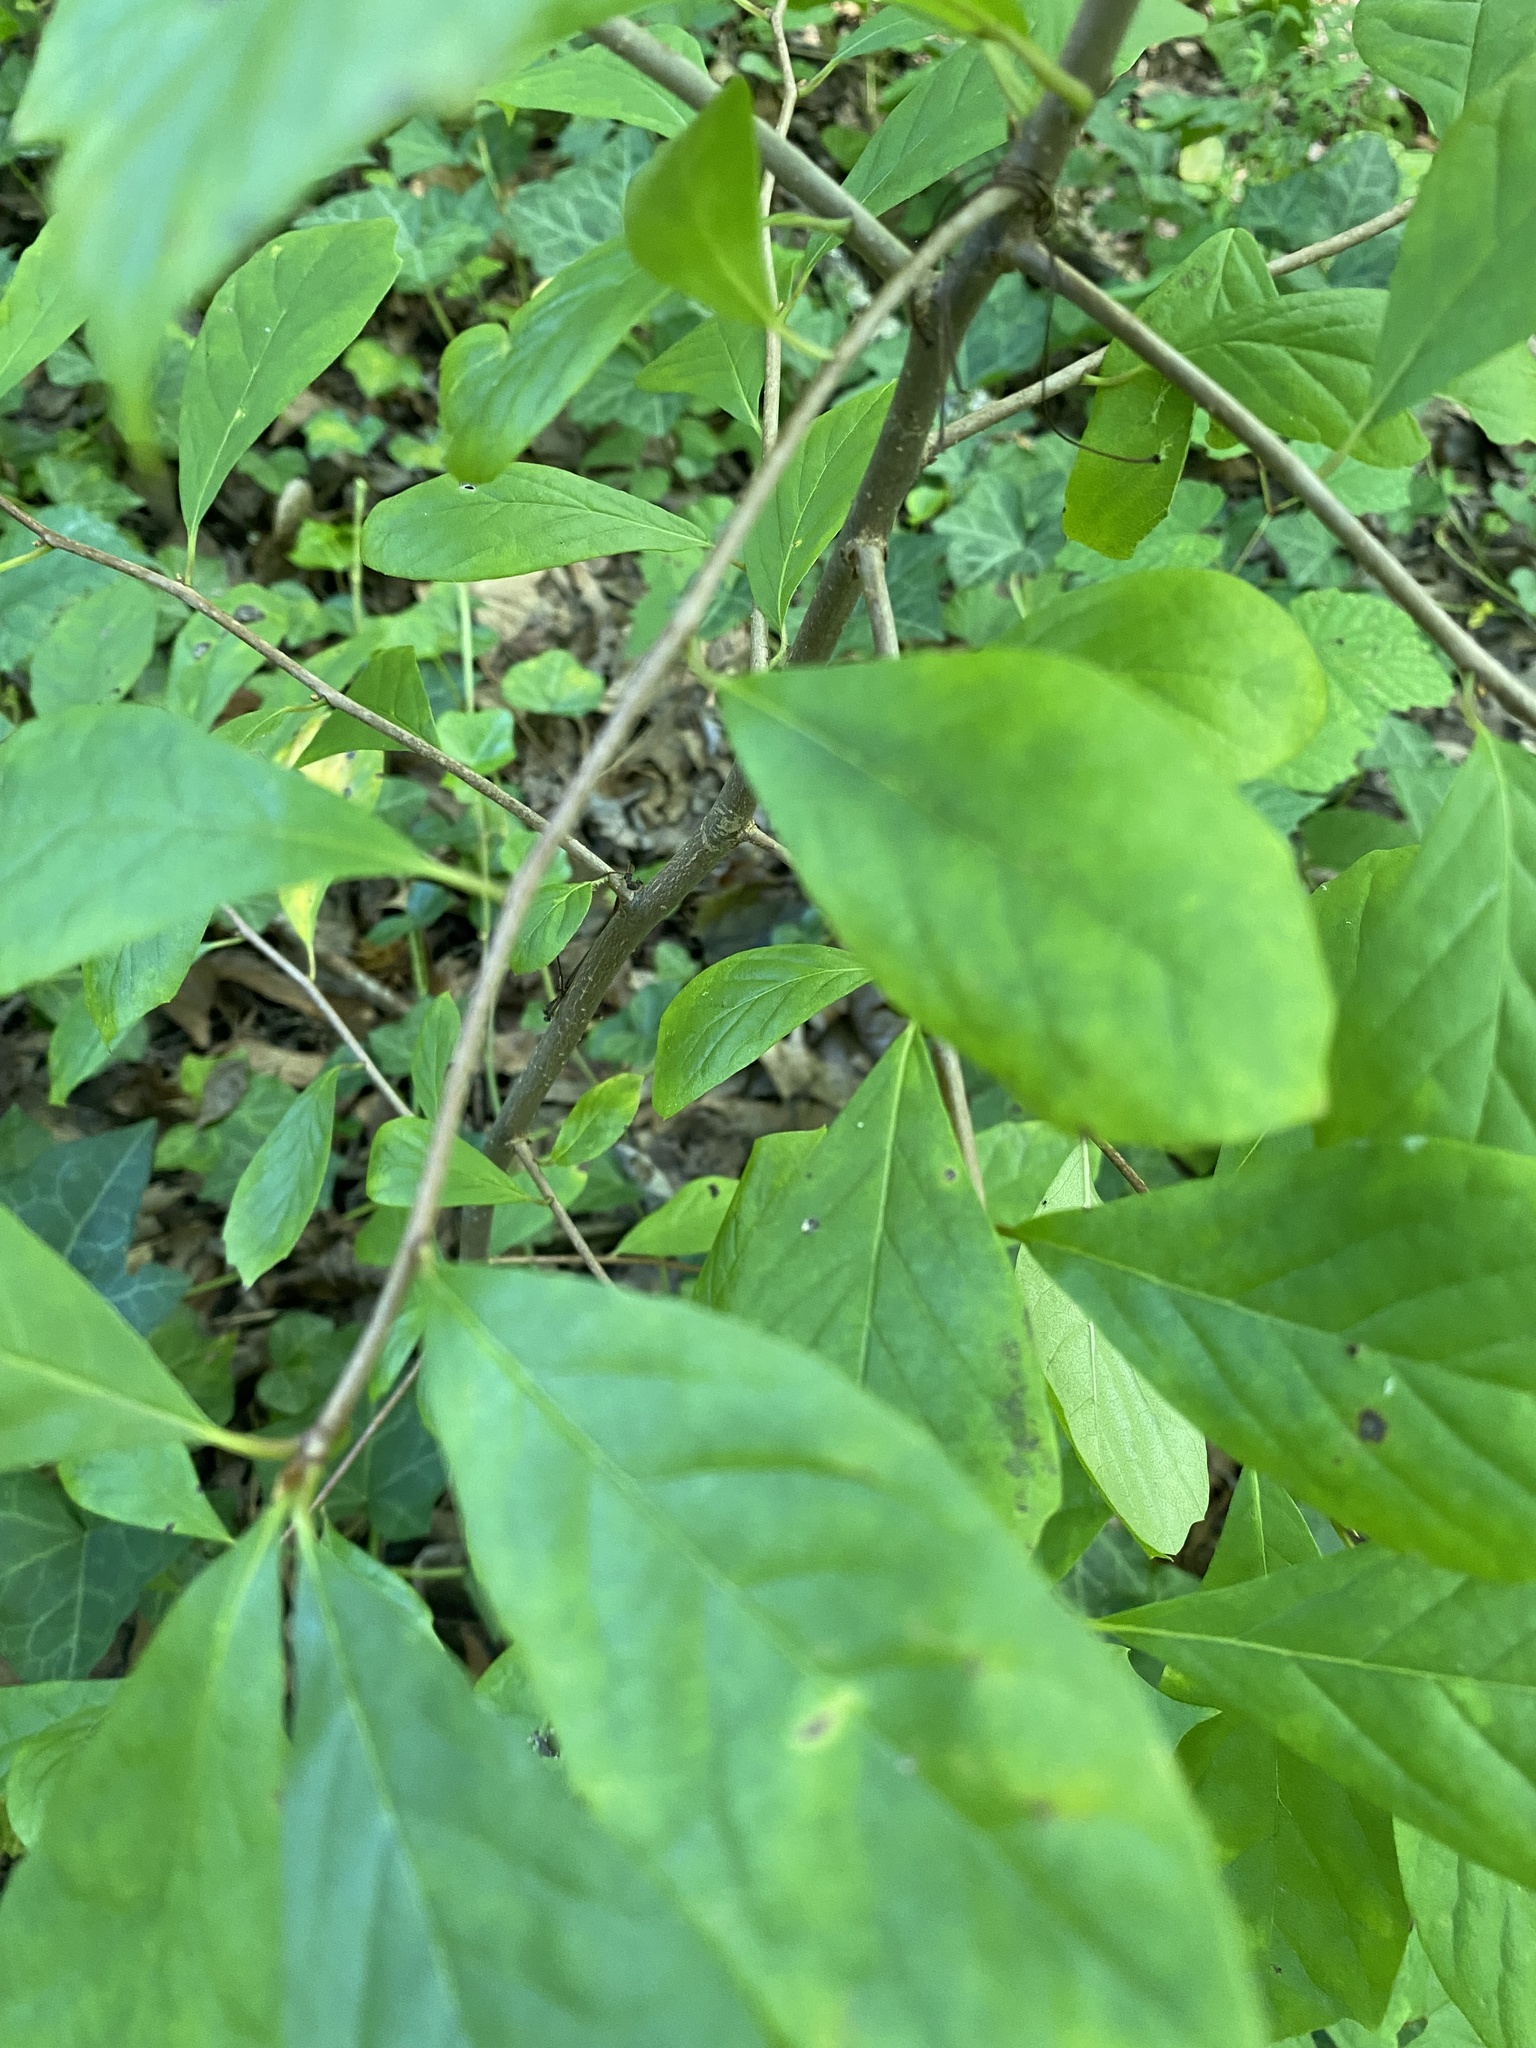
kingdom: Plantae
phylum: Tracheophyta
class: Magnoliopsida
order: Cornales
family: Nyssaceae
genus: Nyssa
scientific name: Nyssa sylvatica
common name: Black tupelo
